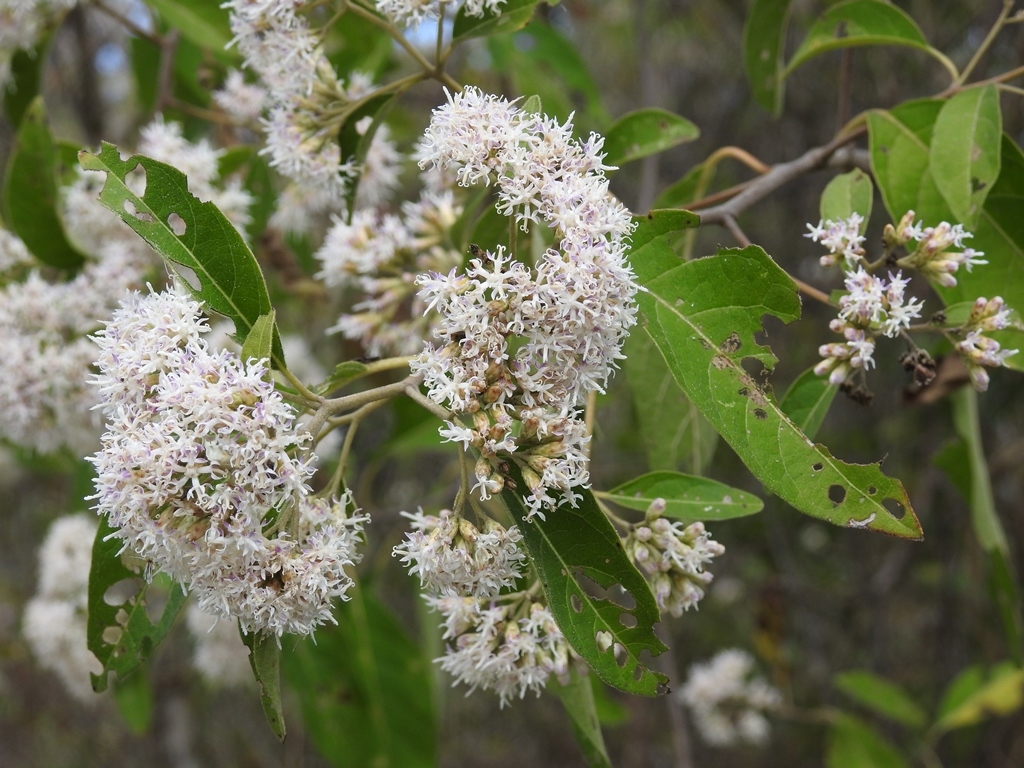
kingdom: Plantae
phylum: Tracheophyta
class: Magnoliopsida
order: Asterales
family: Asteraceae
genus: Eremosis
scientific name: Eremosis leiocarpa
